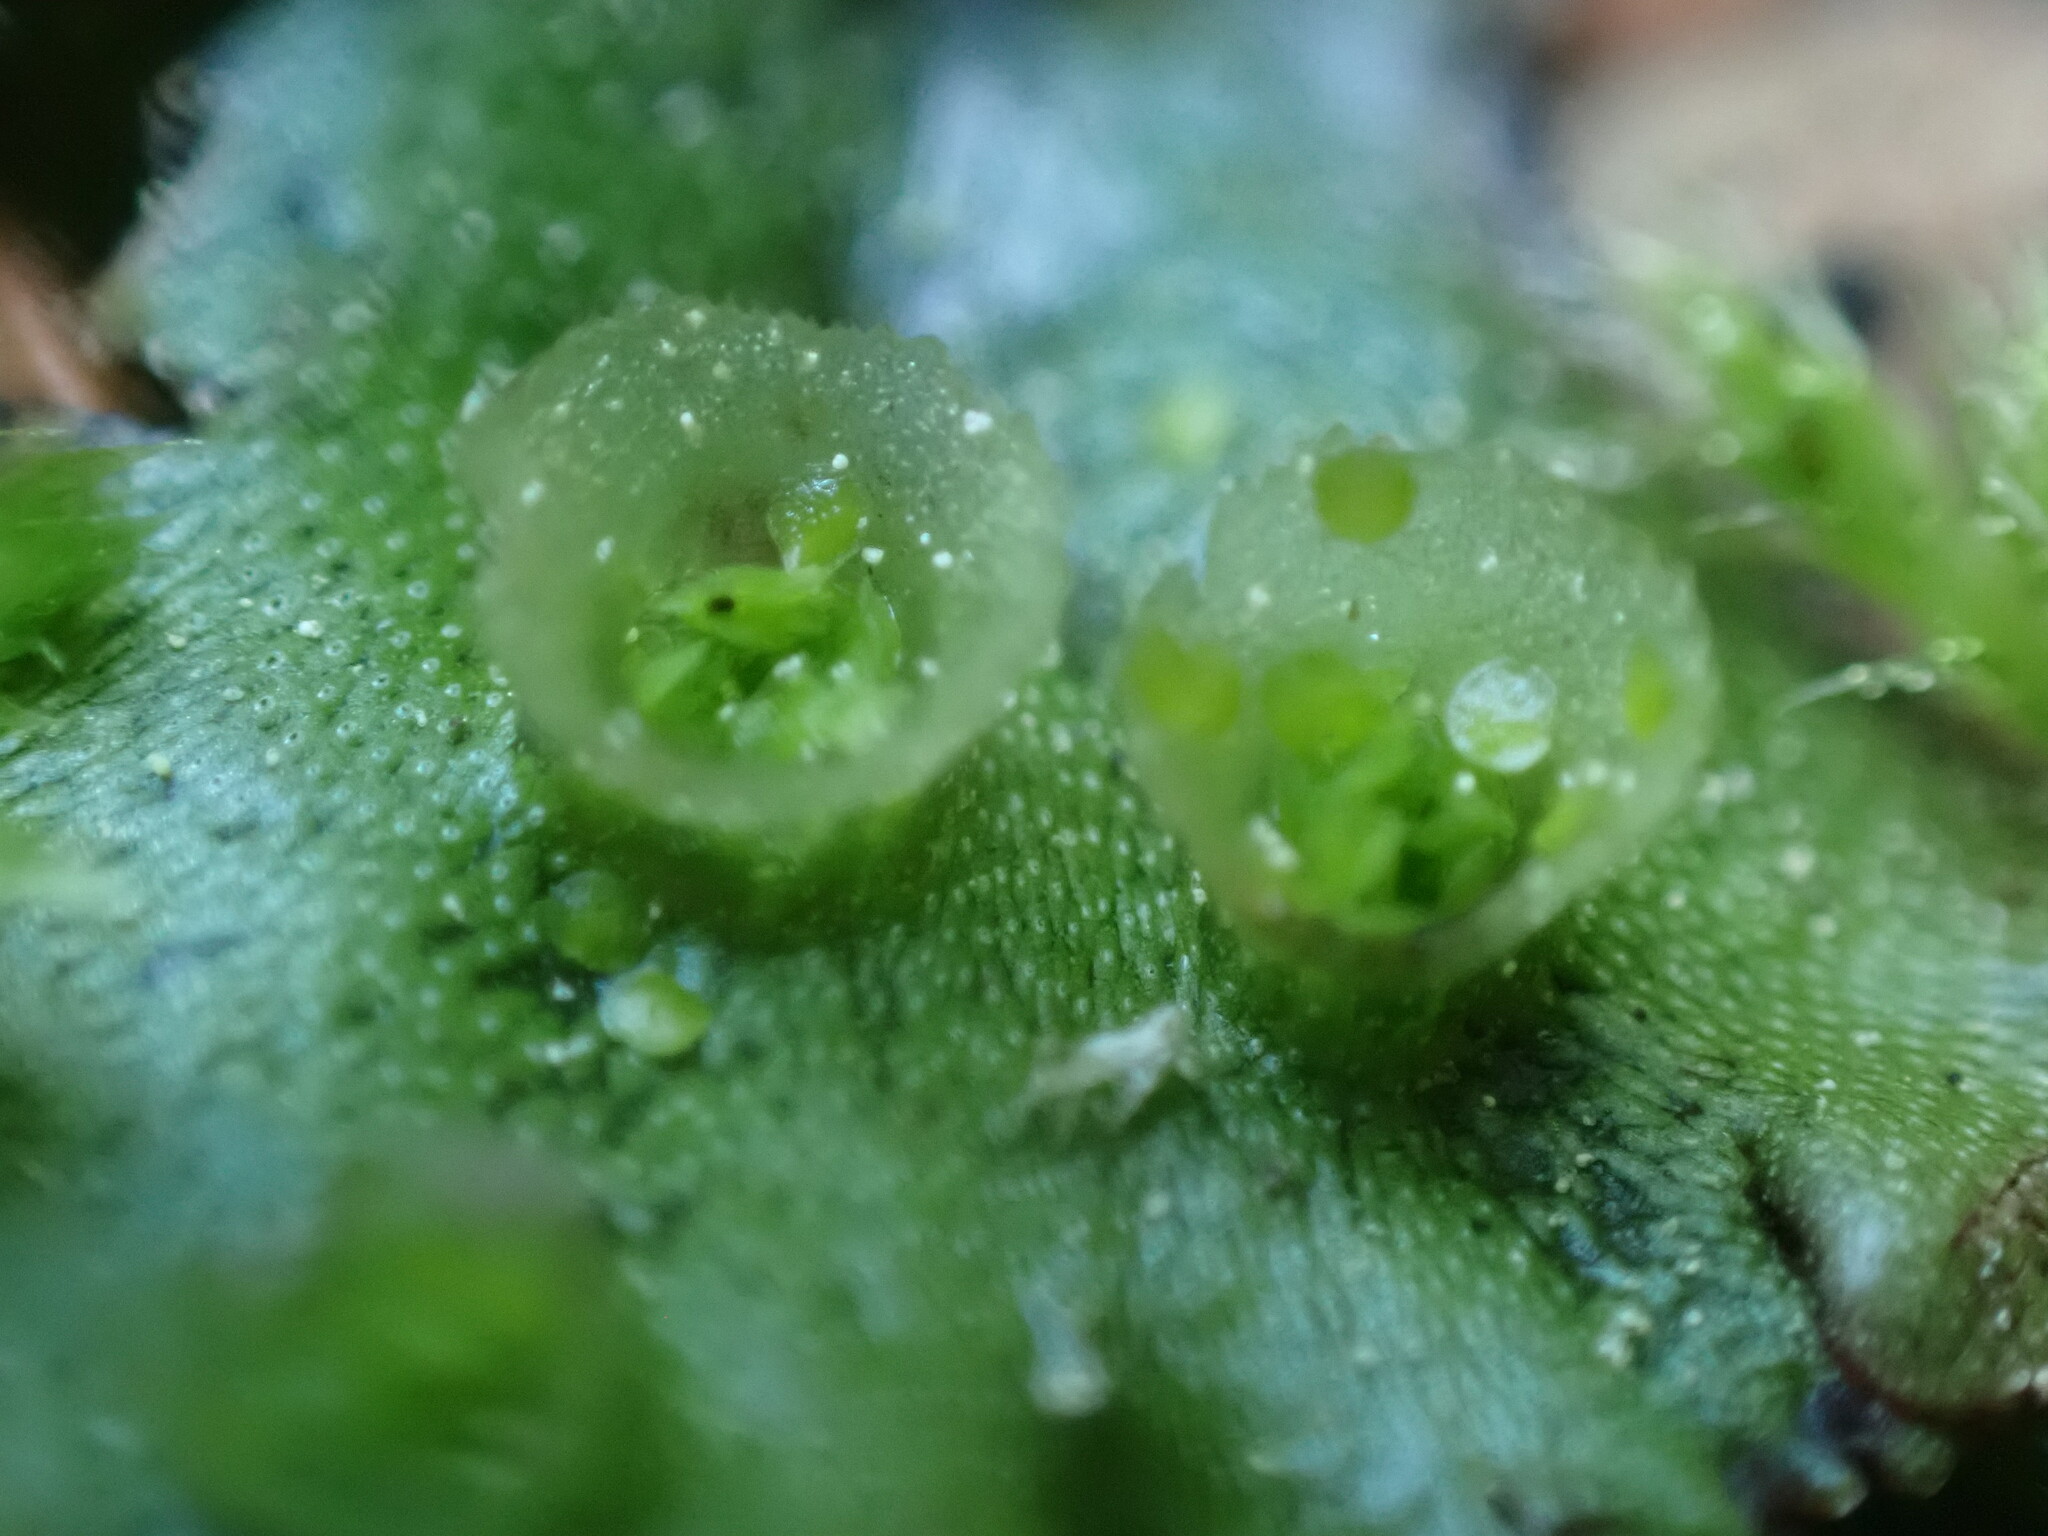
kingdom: Plantae
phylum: Marchantiophyta
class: Marchantiopsida
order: Marchantiales
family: Marchantiaceae
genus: Marchantia
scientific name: Marchantia polymorpha
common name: Common liverwort
